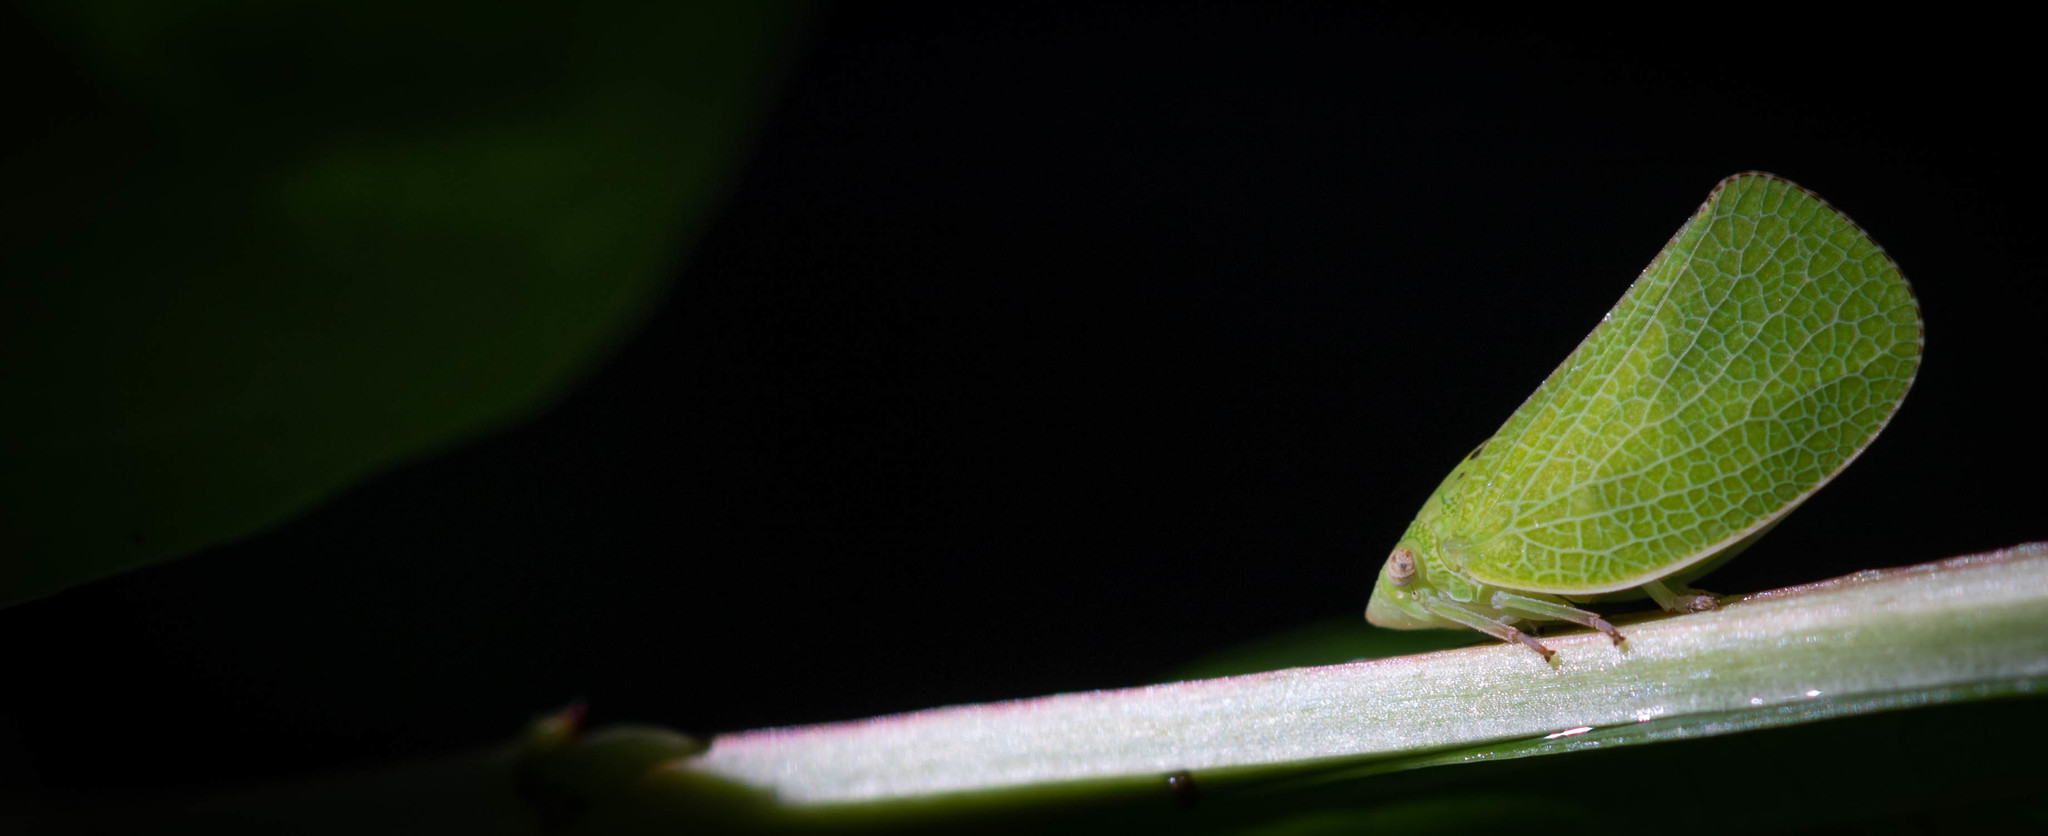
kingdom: Animalia
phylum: Arthropoda
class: Insecta
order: Hemiptera
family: Acanaloniidae
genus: Acanalonia
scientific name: Acanalonia conica
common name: Green cone-headed planthopper
